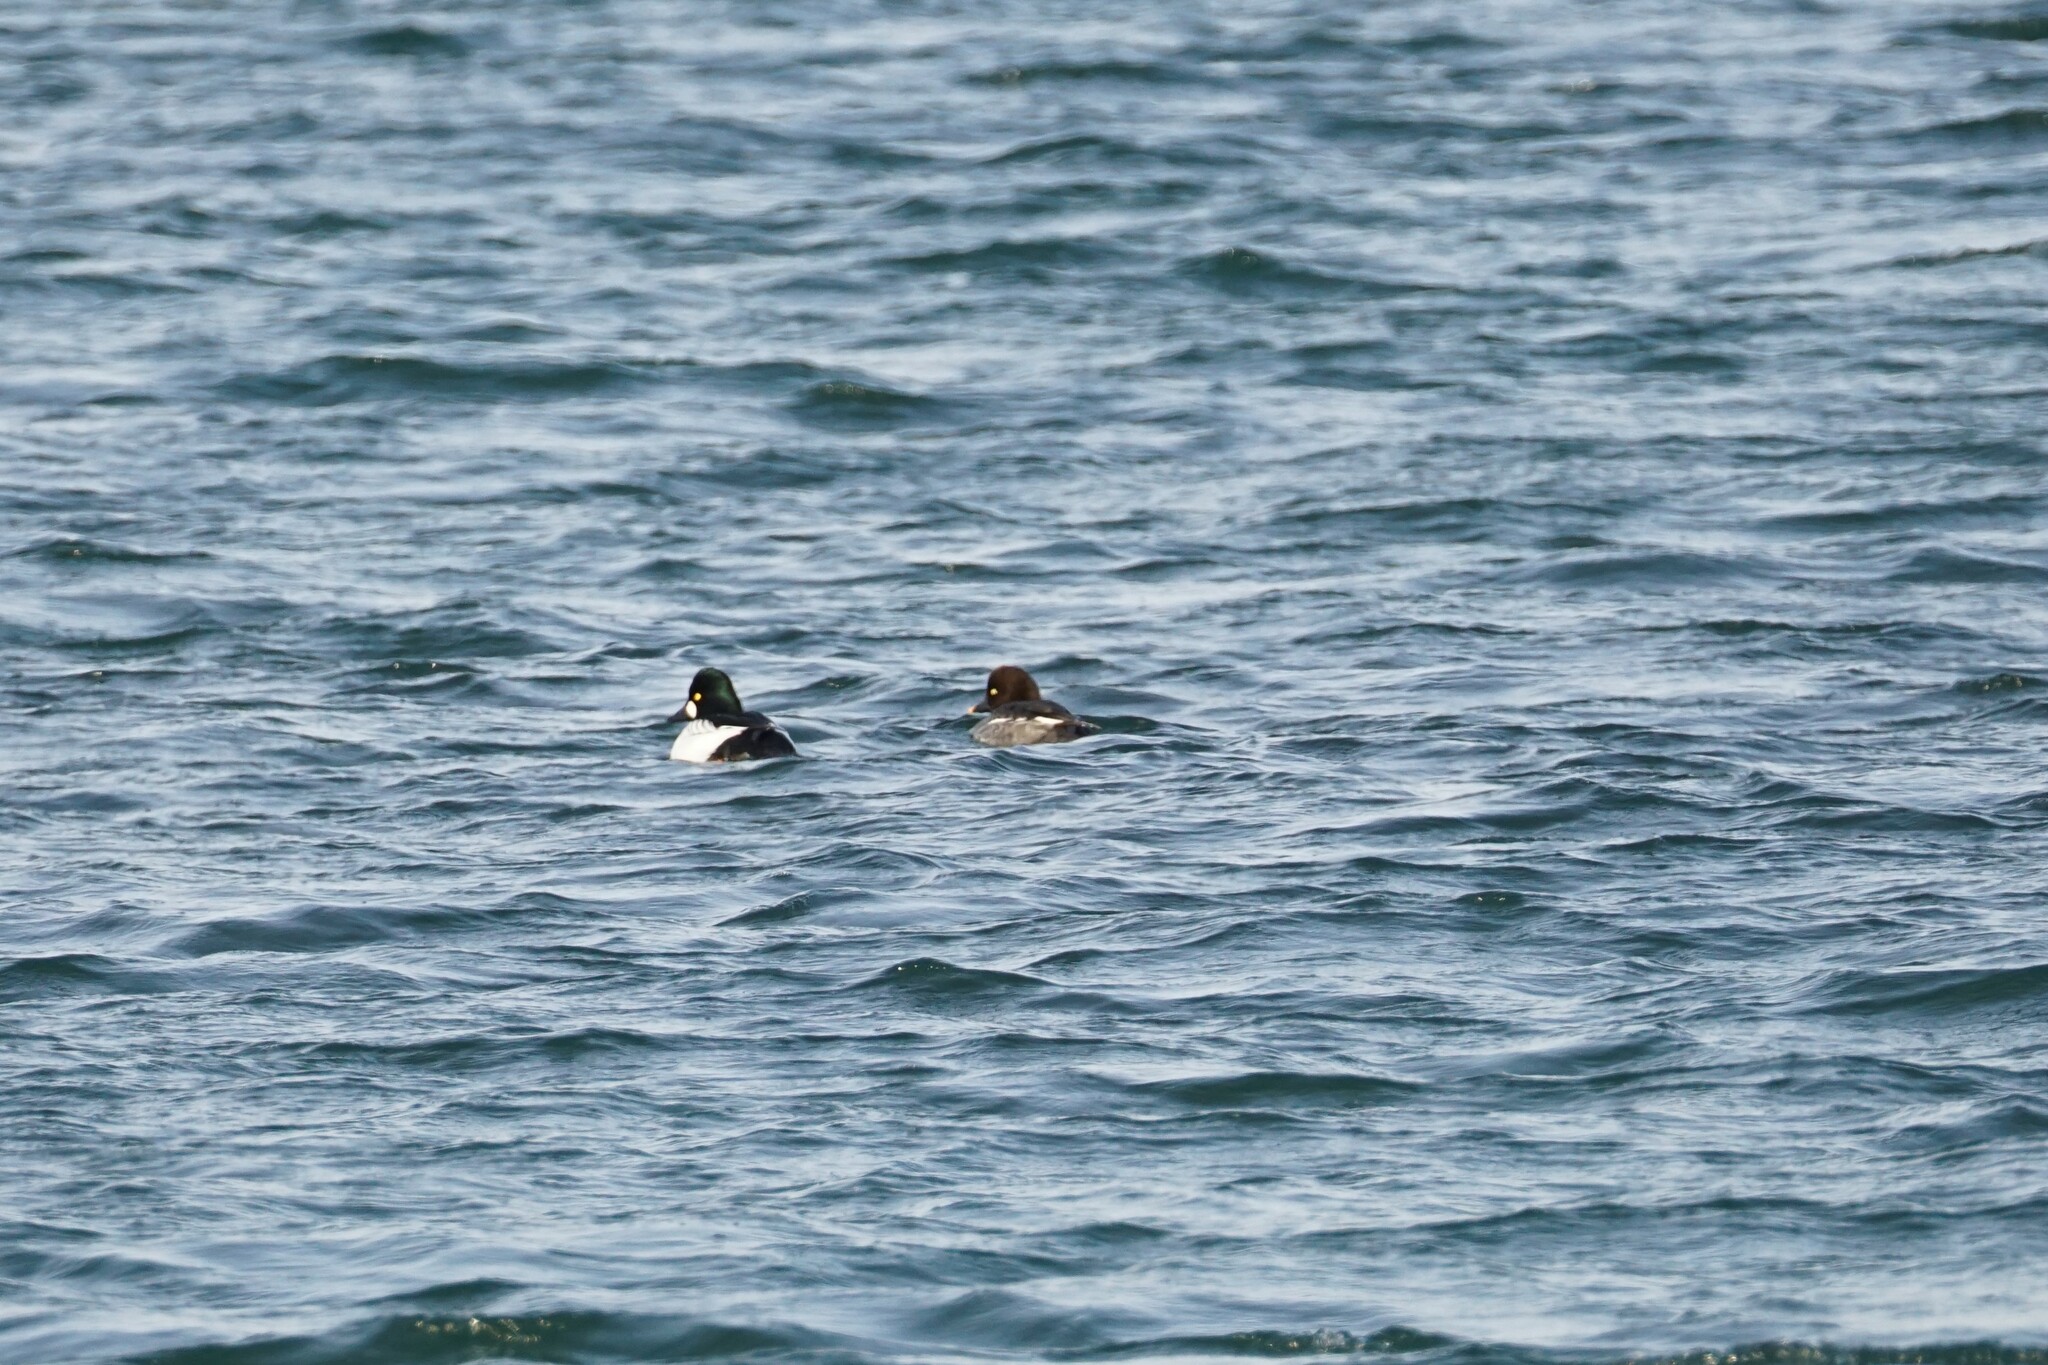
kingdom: Animalia
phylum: Chordata
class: Aves
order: Anseriformes
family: Anatidae
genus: Bucephala
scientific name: Bucephala clangula
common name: Common goldeneye
